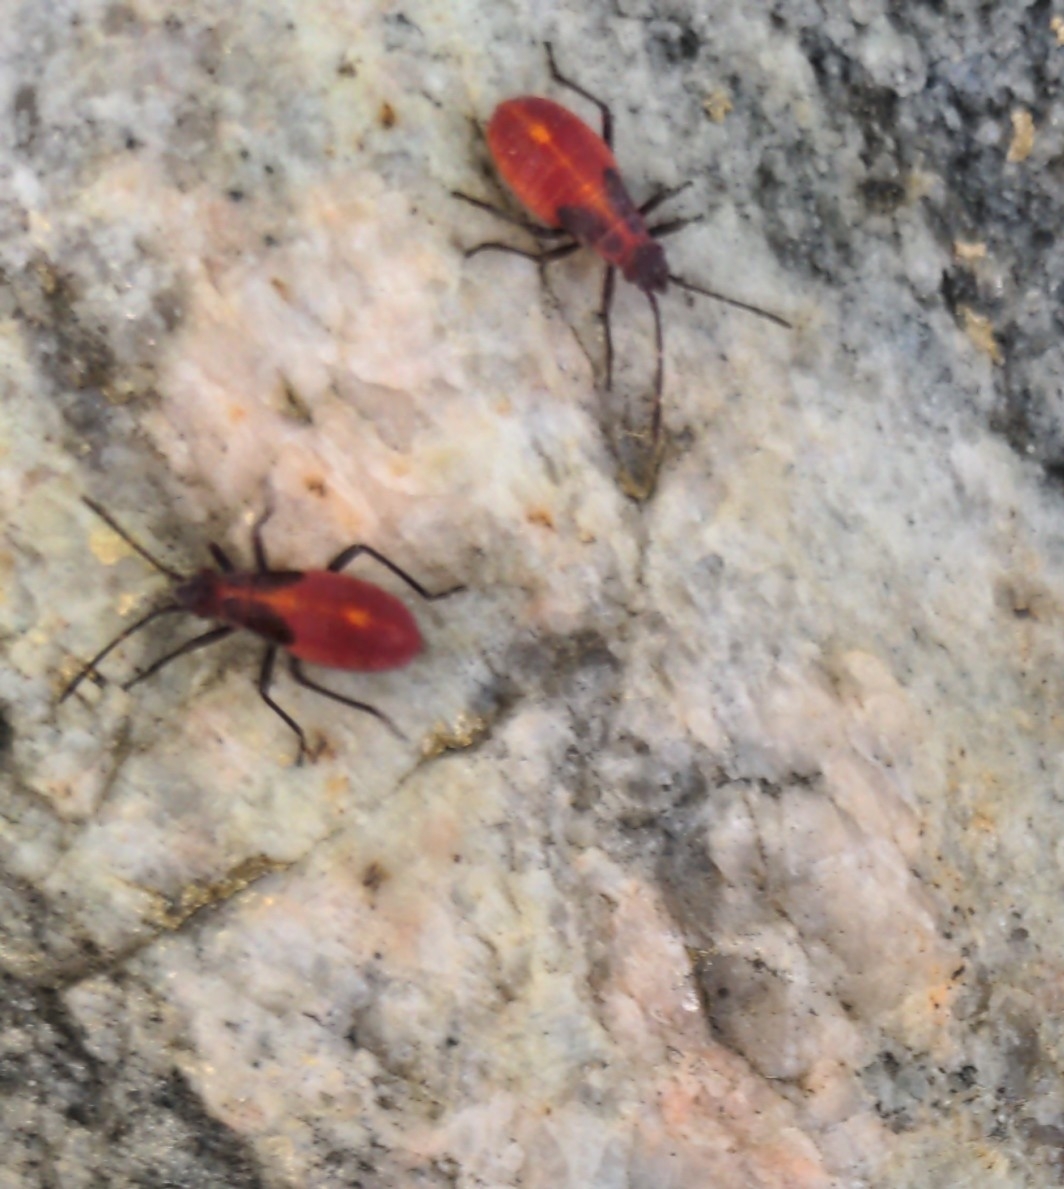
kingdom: Animalia
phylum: Arthropoda
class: Insecta
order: Hemiptera
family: Rhopalidae
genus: Boisea
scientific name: Boisea trivittata
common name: Boxelder bug
